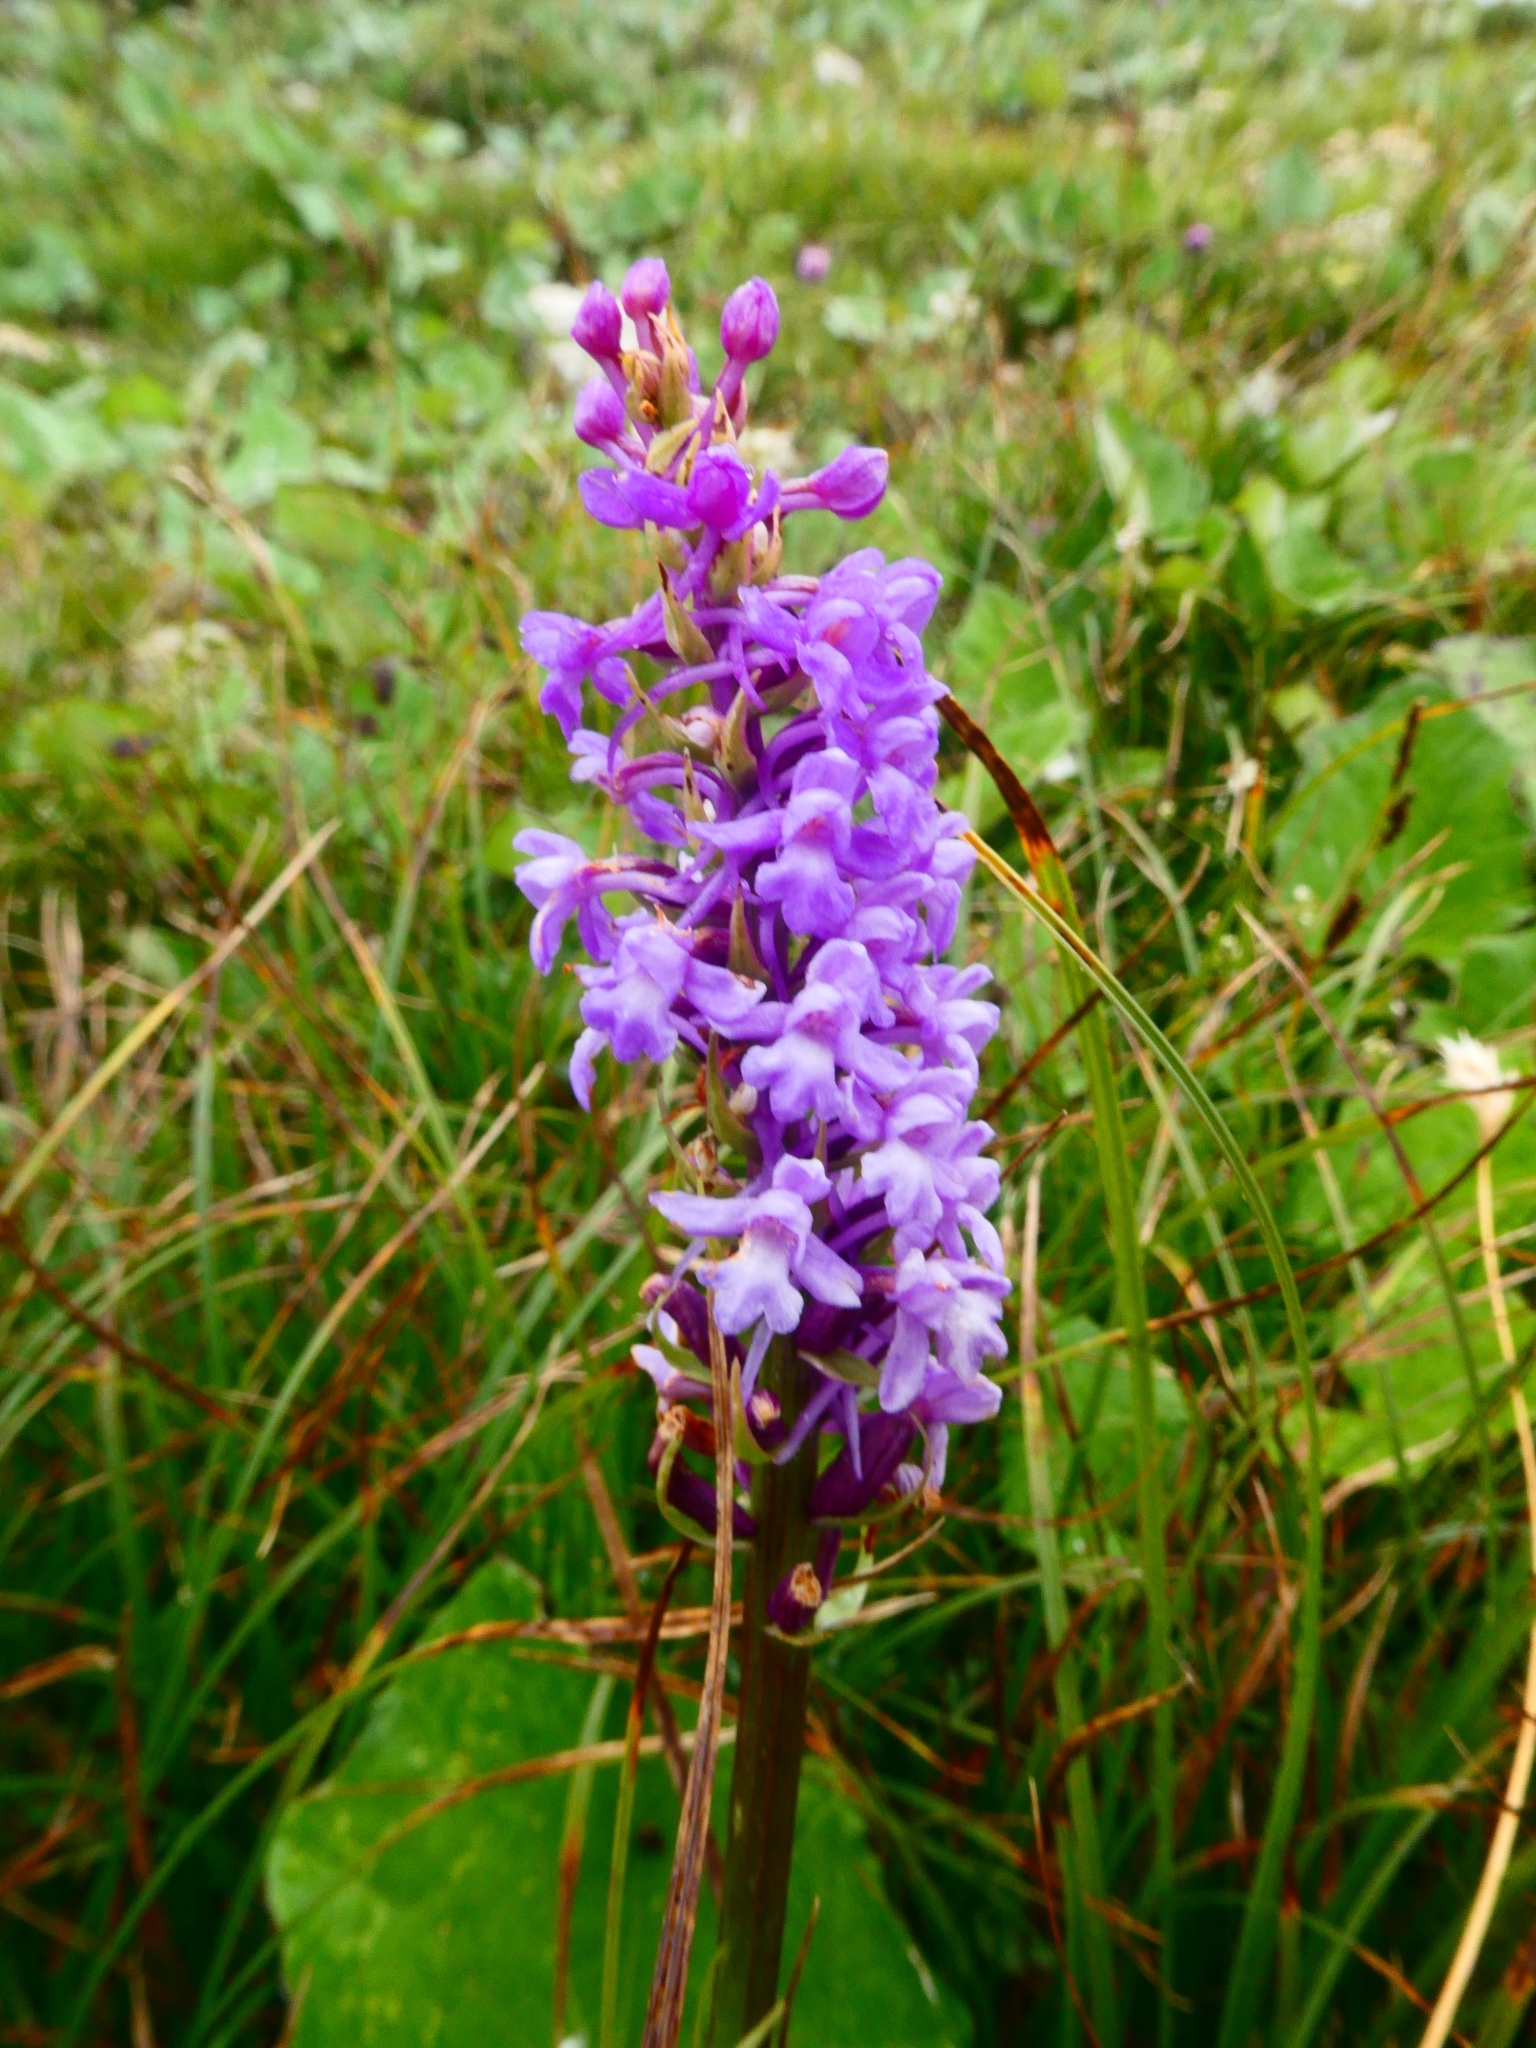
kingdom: Plantae
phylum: Tracheophyta
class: Liliopsida
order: Asparagales
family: Orchidaceae
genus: Gymnadenia
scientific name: Gymnadenia conopsea
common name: Fragrant orchid
